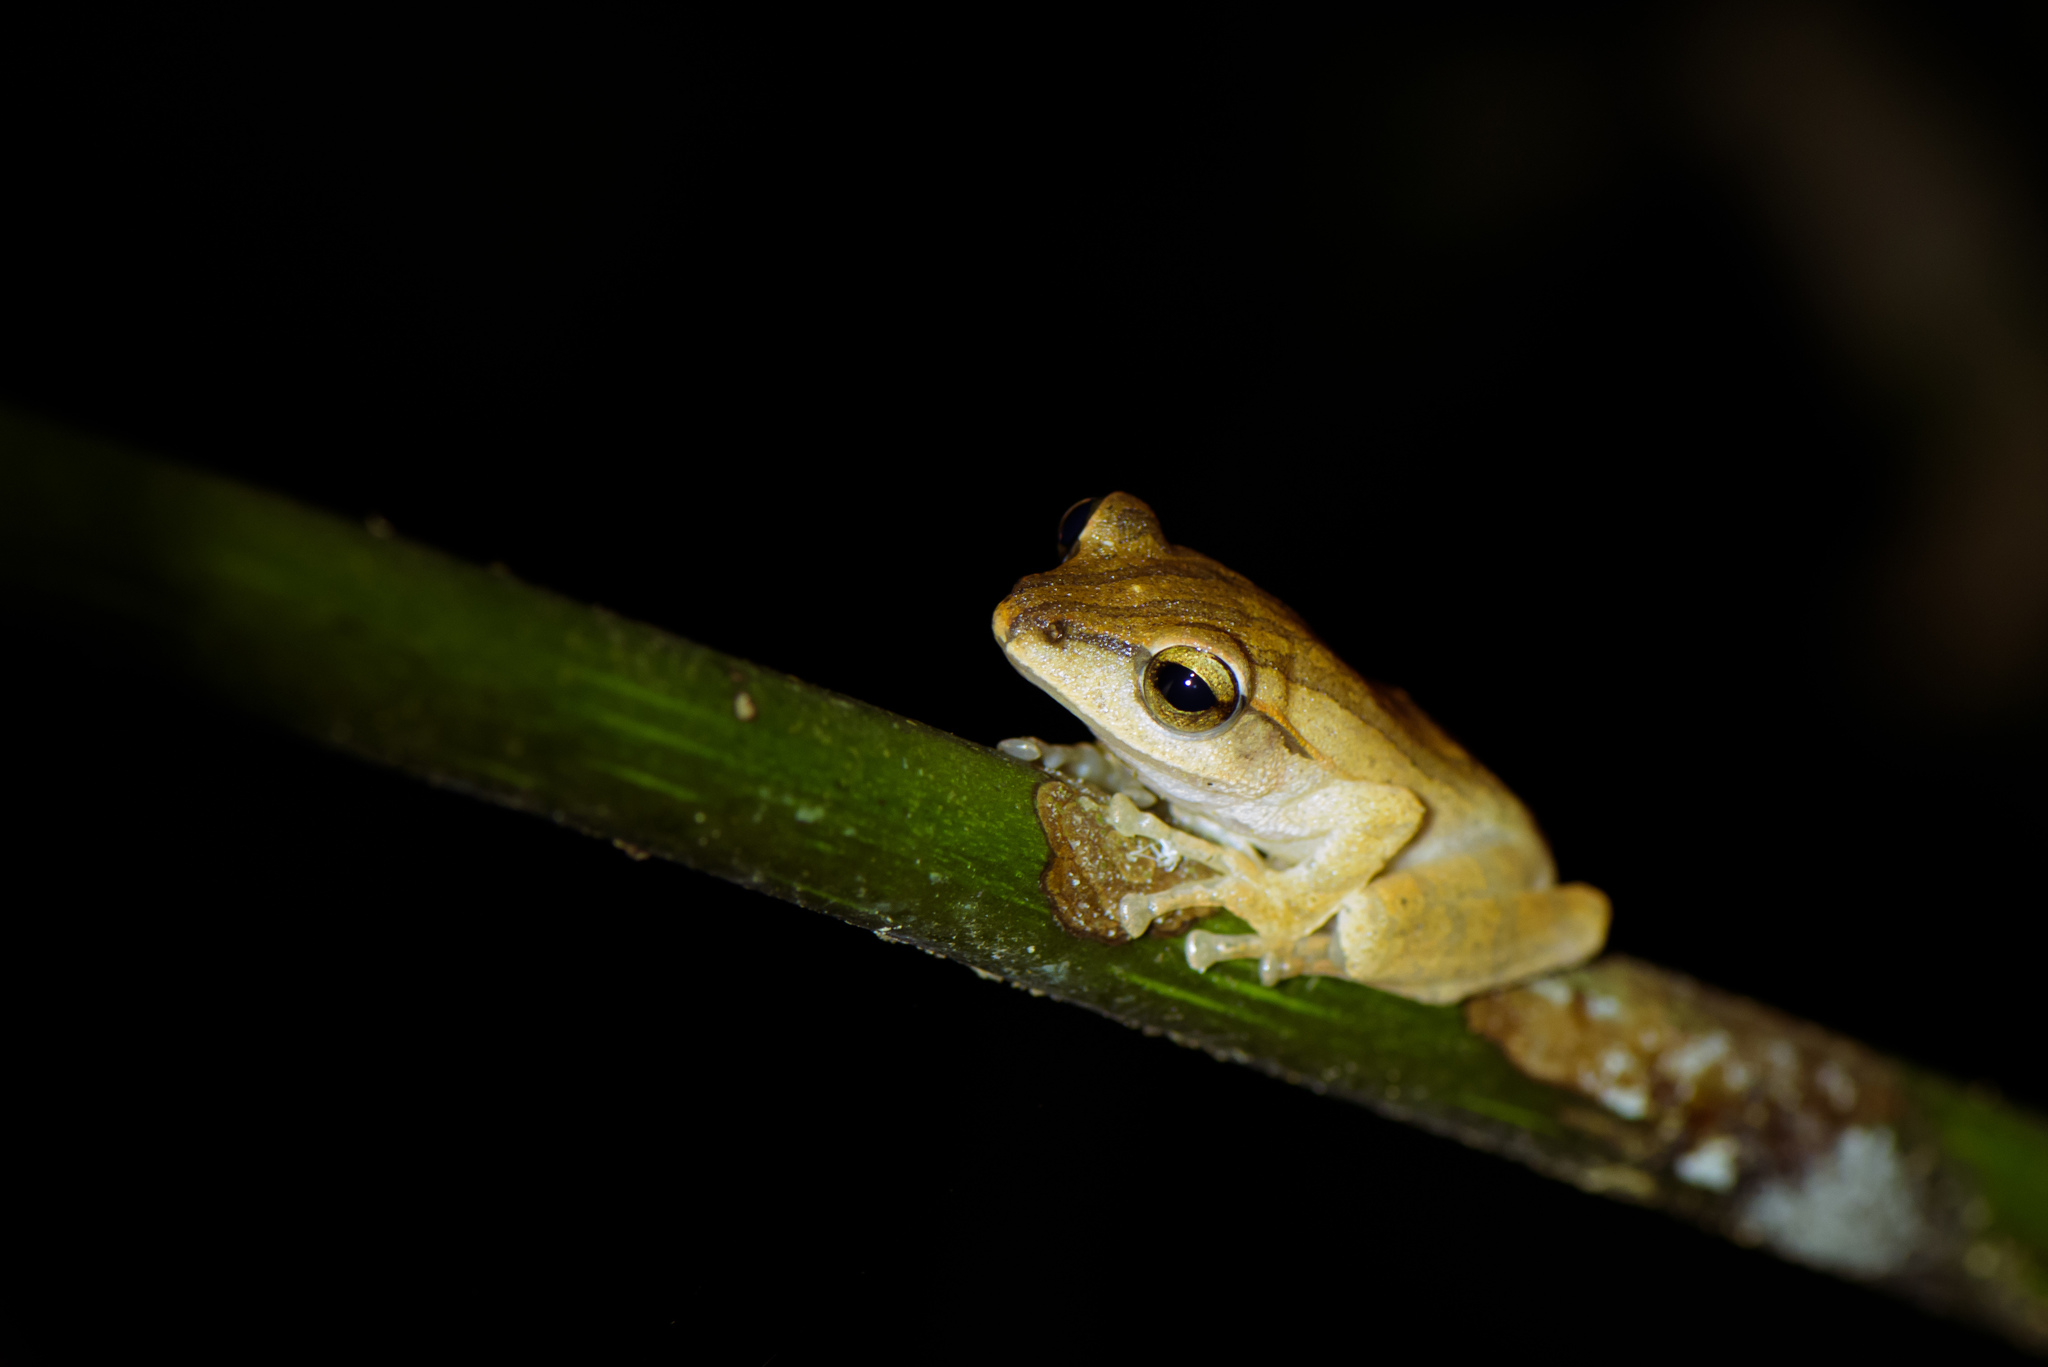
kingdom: Animalia
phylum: Chordata
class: Amphibia
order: Anura
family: Rhacophoridae
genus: Polypedates
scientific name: Polypedates braueri
